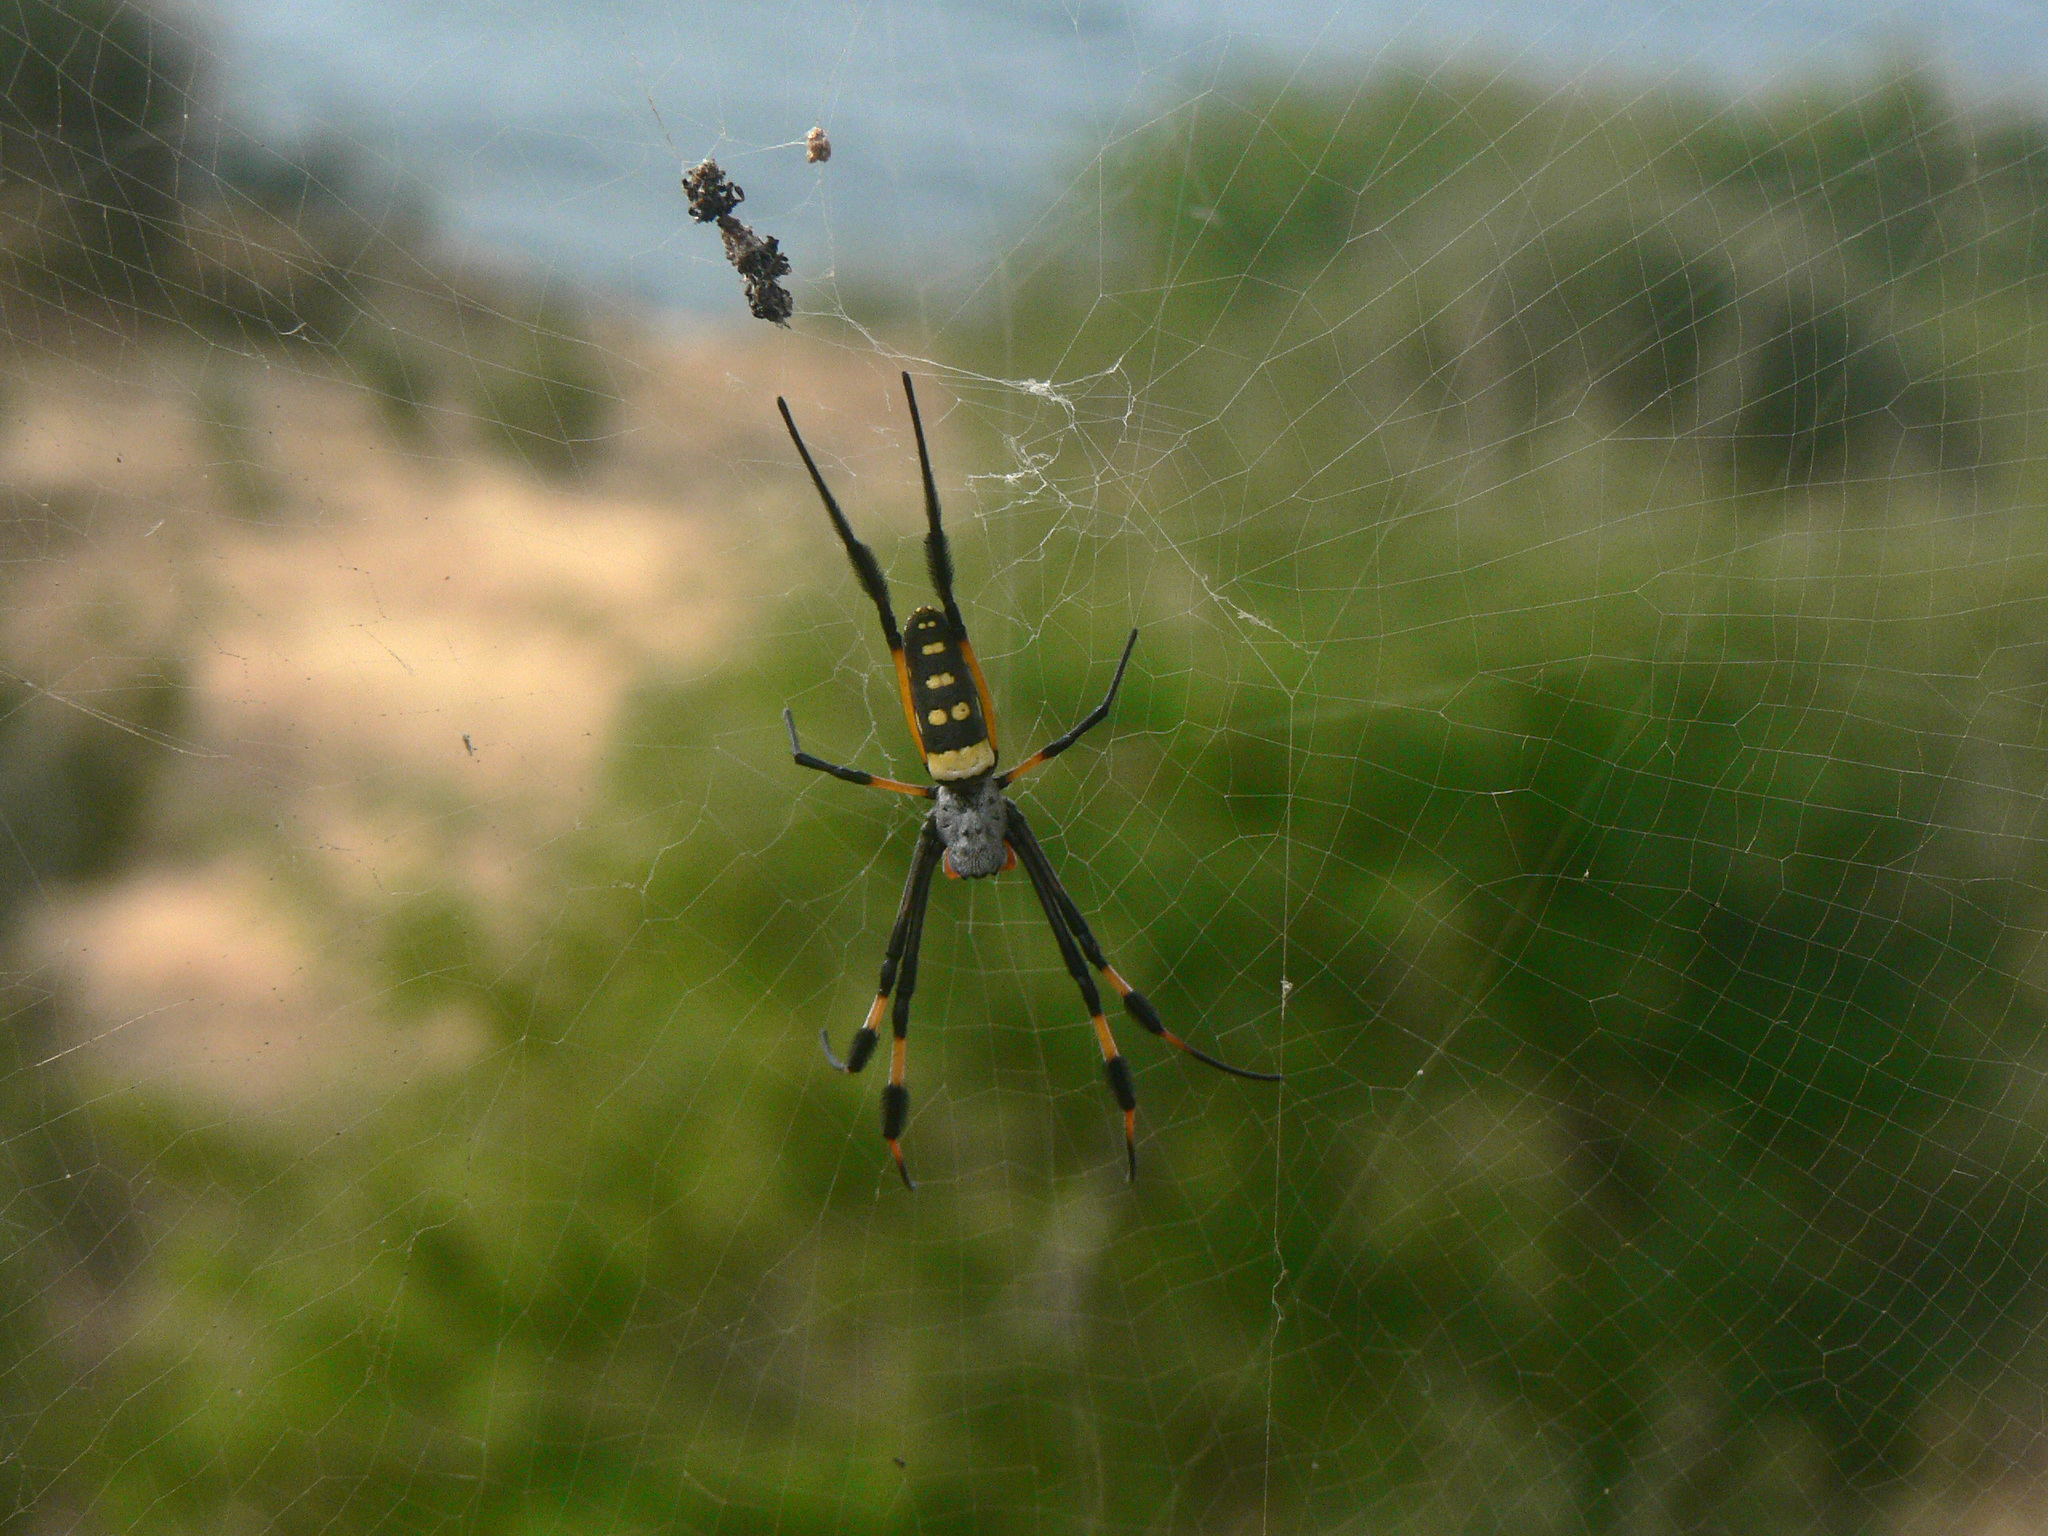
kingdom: Animalia
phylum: Arthropoda
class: Arachnida
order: Araneae
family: Araneidae
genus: Trichonephila
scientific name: Trichonephila senegalensis
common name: Banded golden orb weaver
